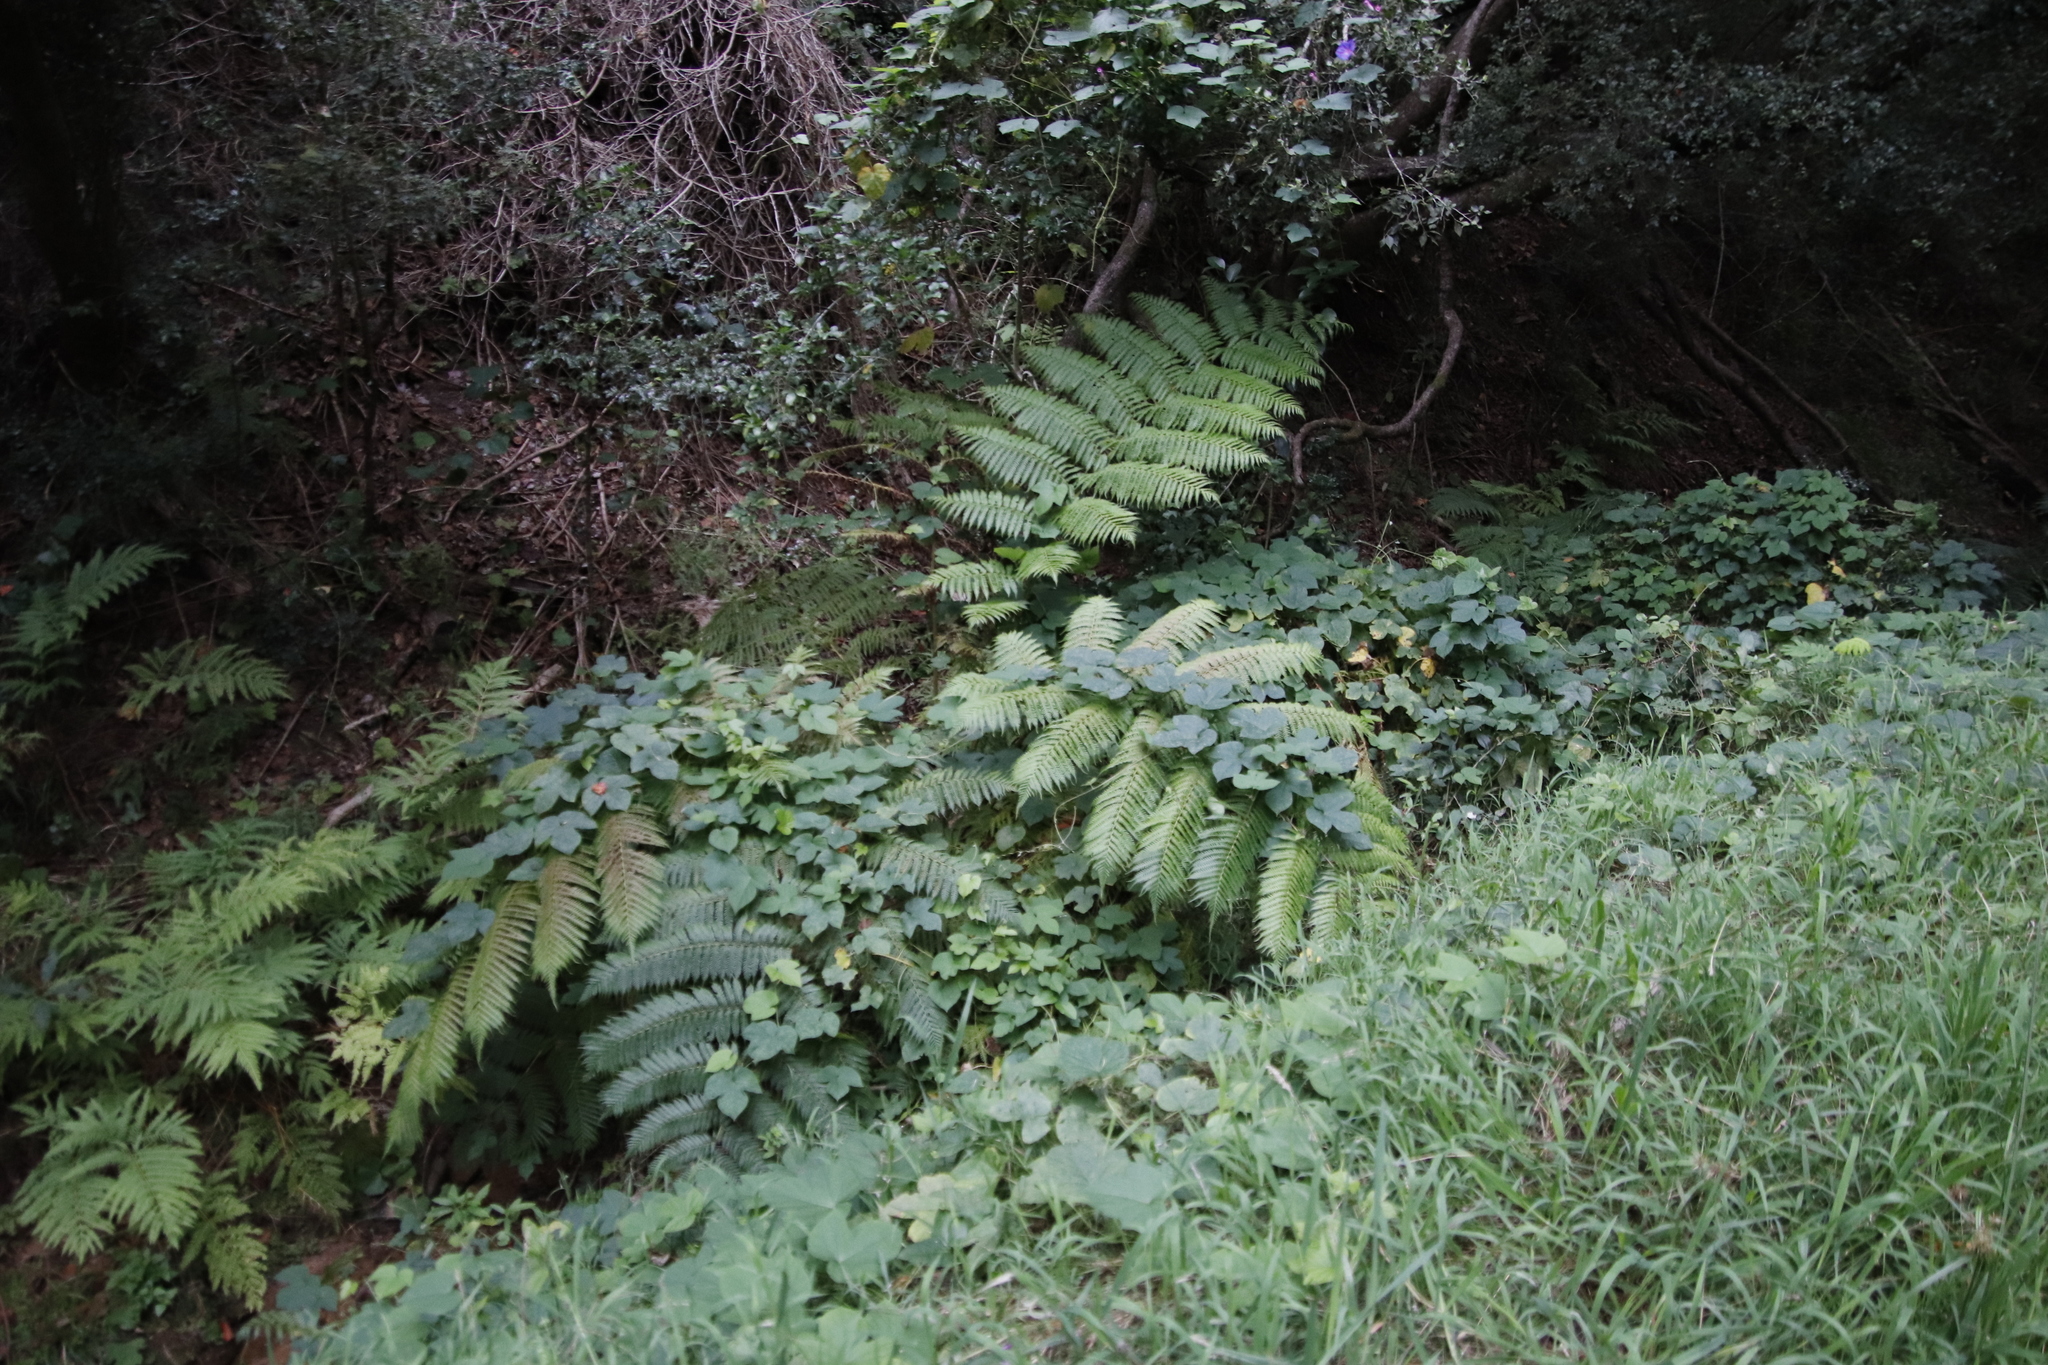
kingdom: Plantae
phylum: Tracheophyta
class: Polypodiopsida
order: Polypodiales
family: Pteridaceae
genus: Pteris
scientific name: Pteris dentata
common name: Toothed brake
